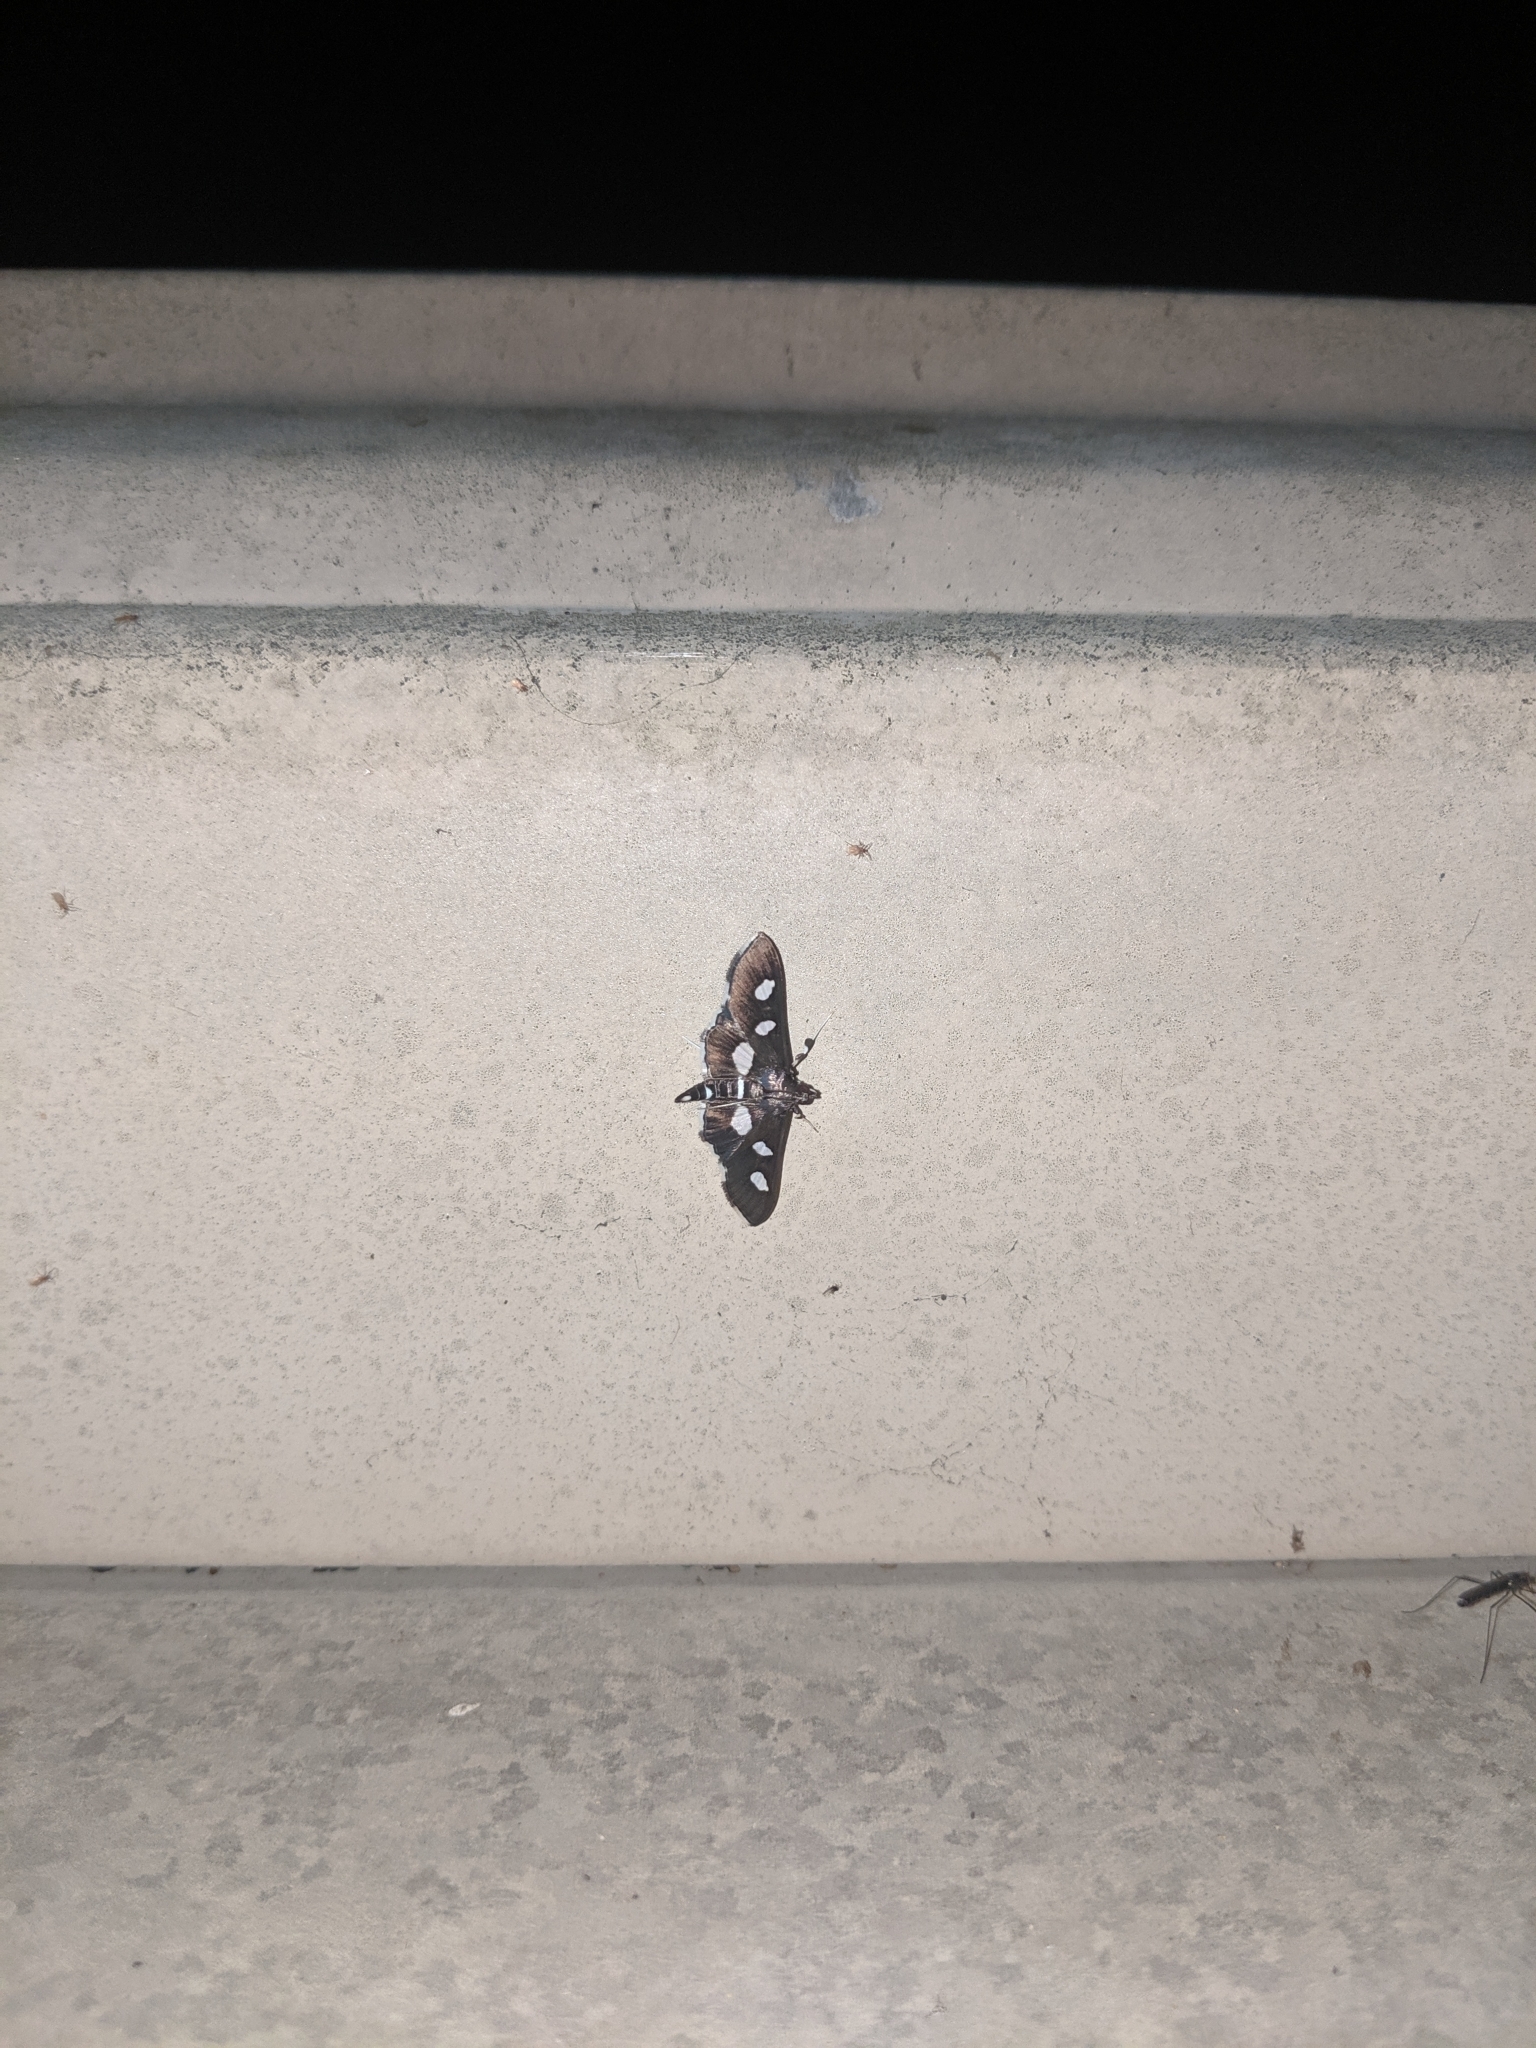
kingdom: Animalia
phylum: Arthropoda
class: Insecta
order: Lepidoptera
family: Crambidae
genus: Desmia
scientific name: Desmia
